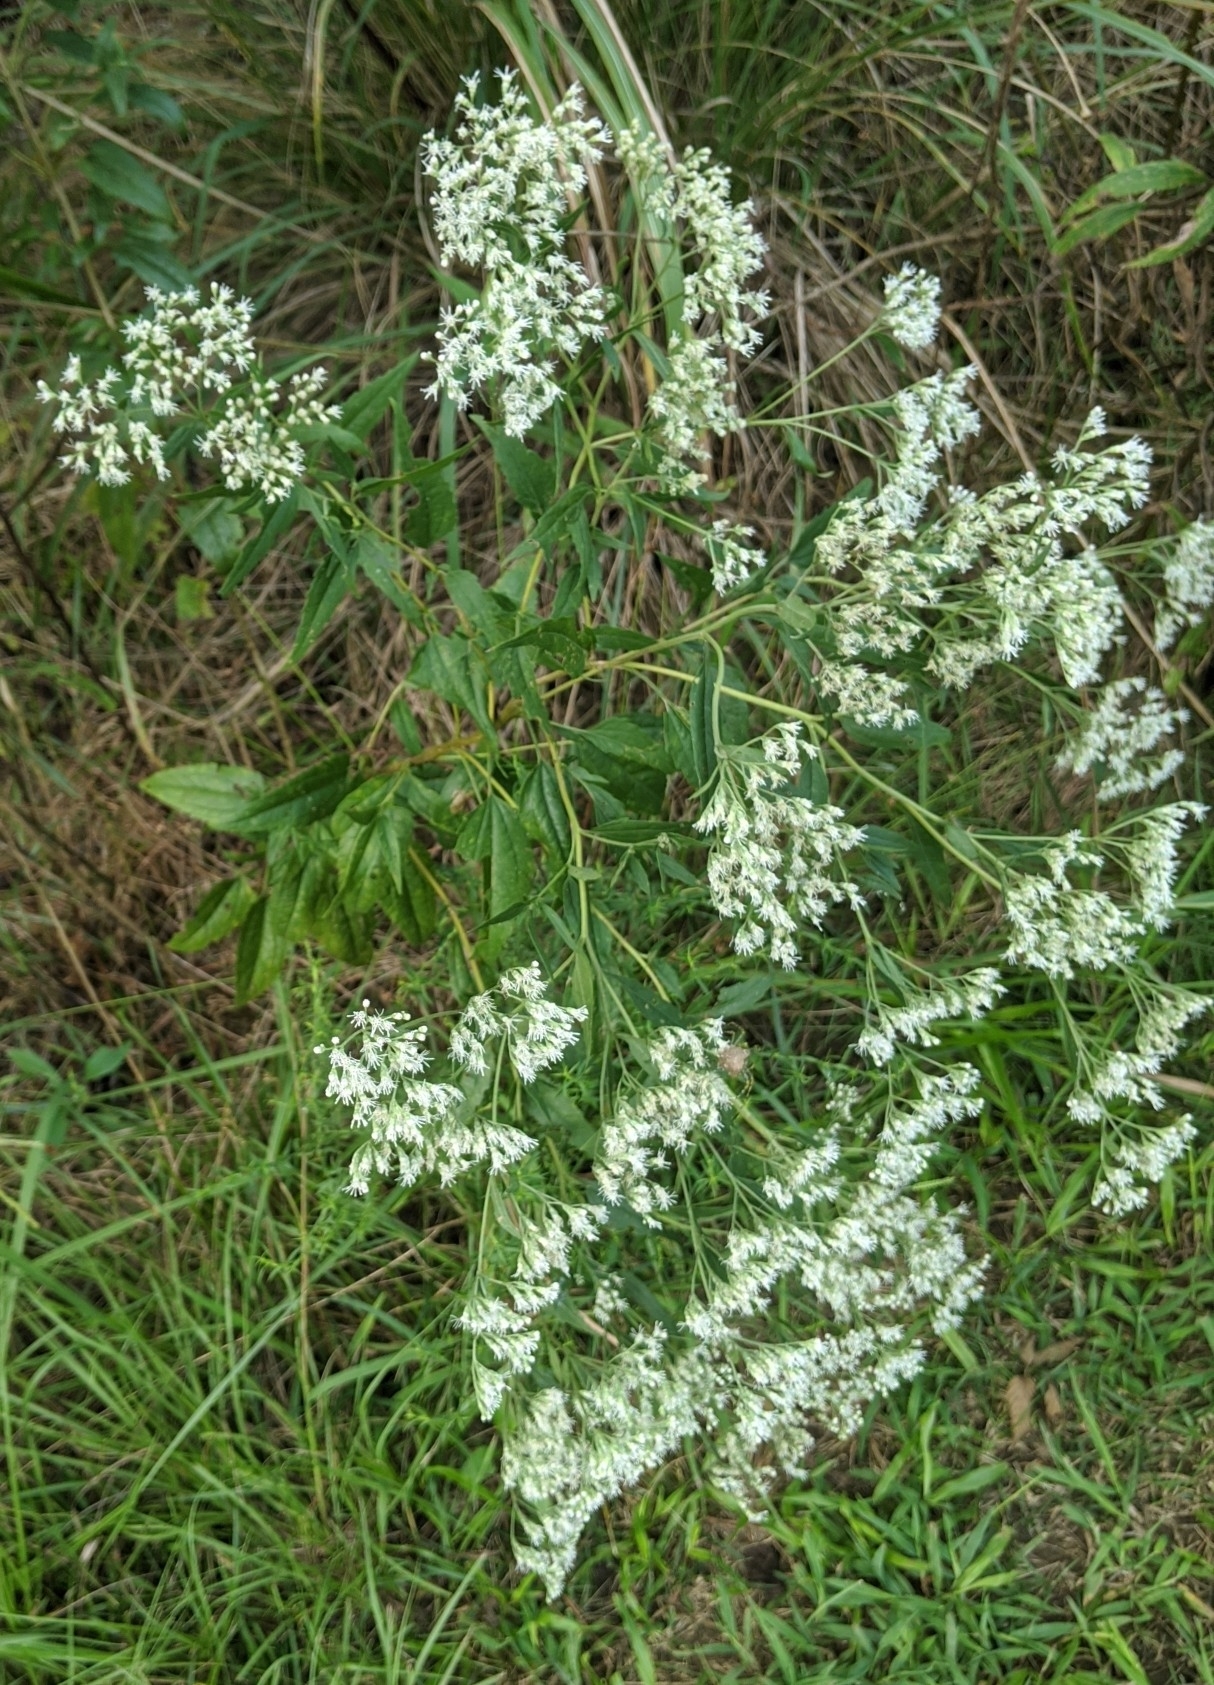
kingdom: Plantae
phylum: Tracheophyta
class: Magnoliopsida
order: Asterales
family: Asteraceae
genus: Eupatorium
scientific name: Eupatorium serotinum
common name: Late boneset
